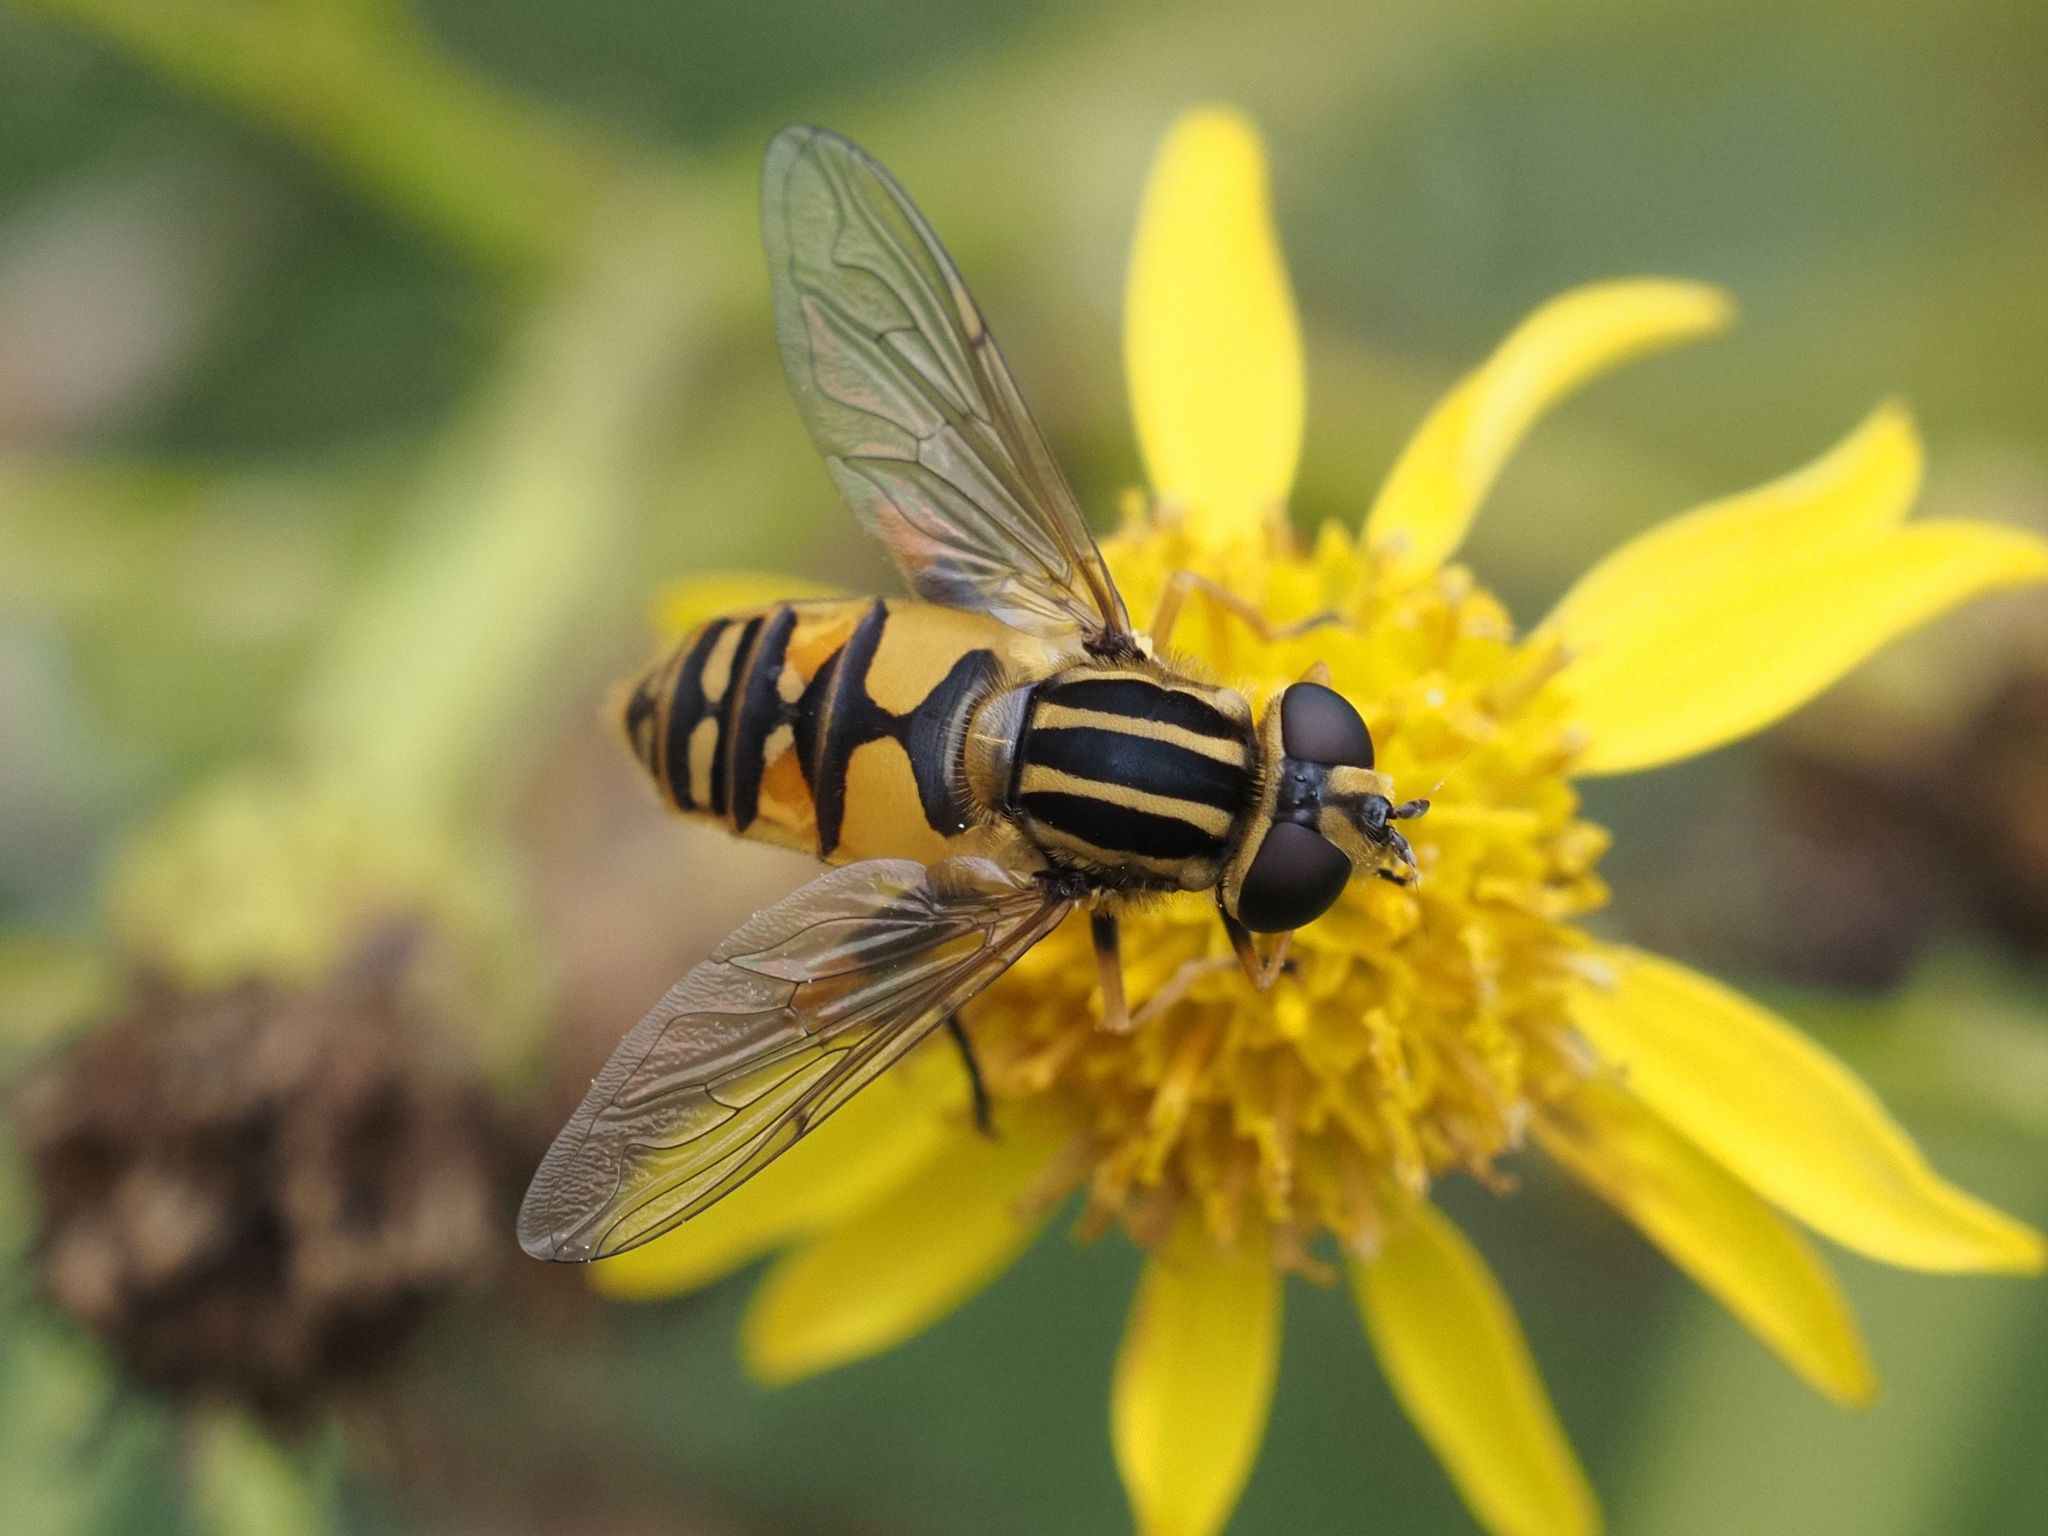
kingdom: Animalia
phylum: Arthropoda
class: Insecta
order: Diptera
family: Syrphidae
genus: Helophilus
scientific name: Helophilus pendulus
